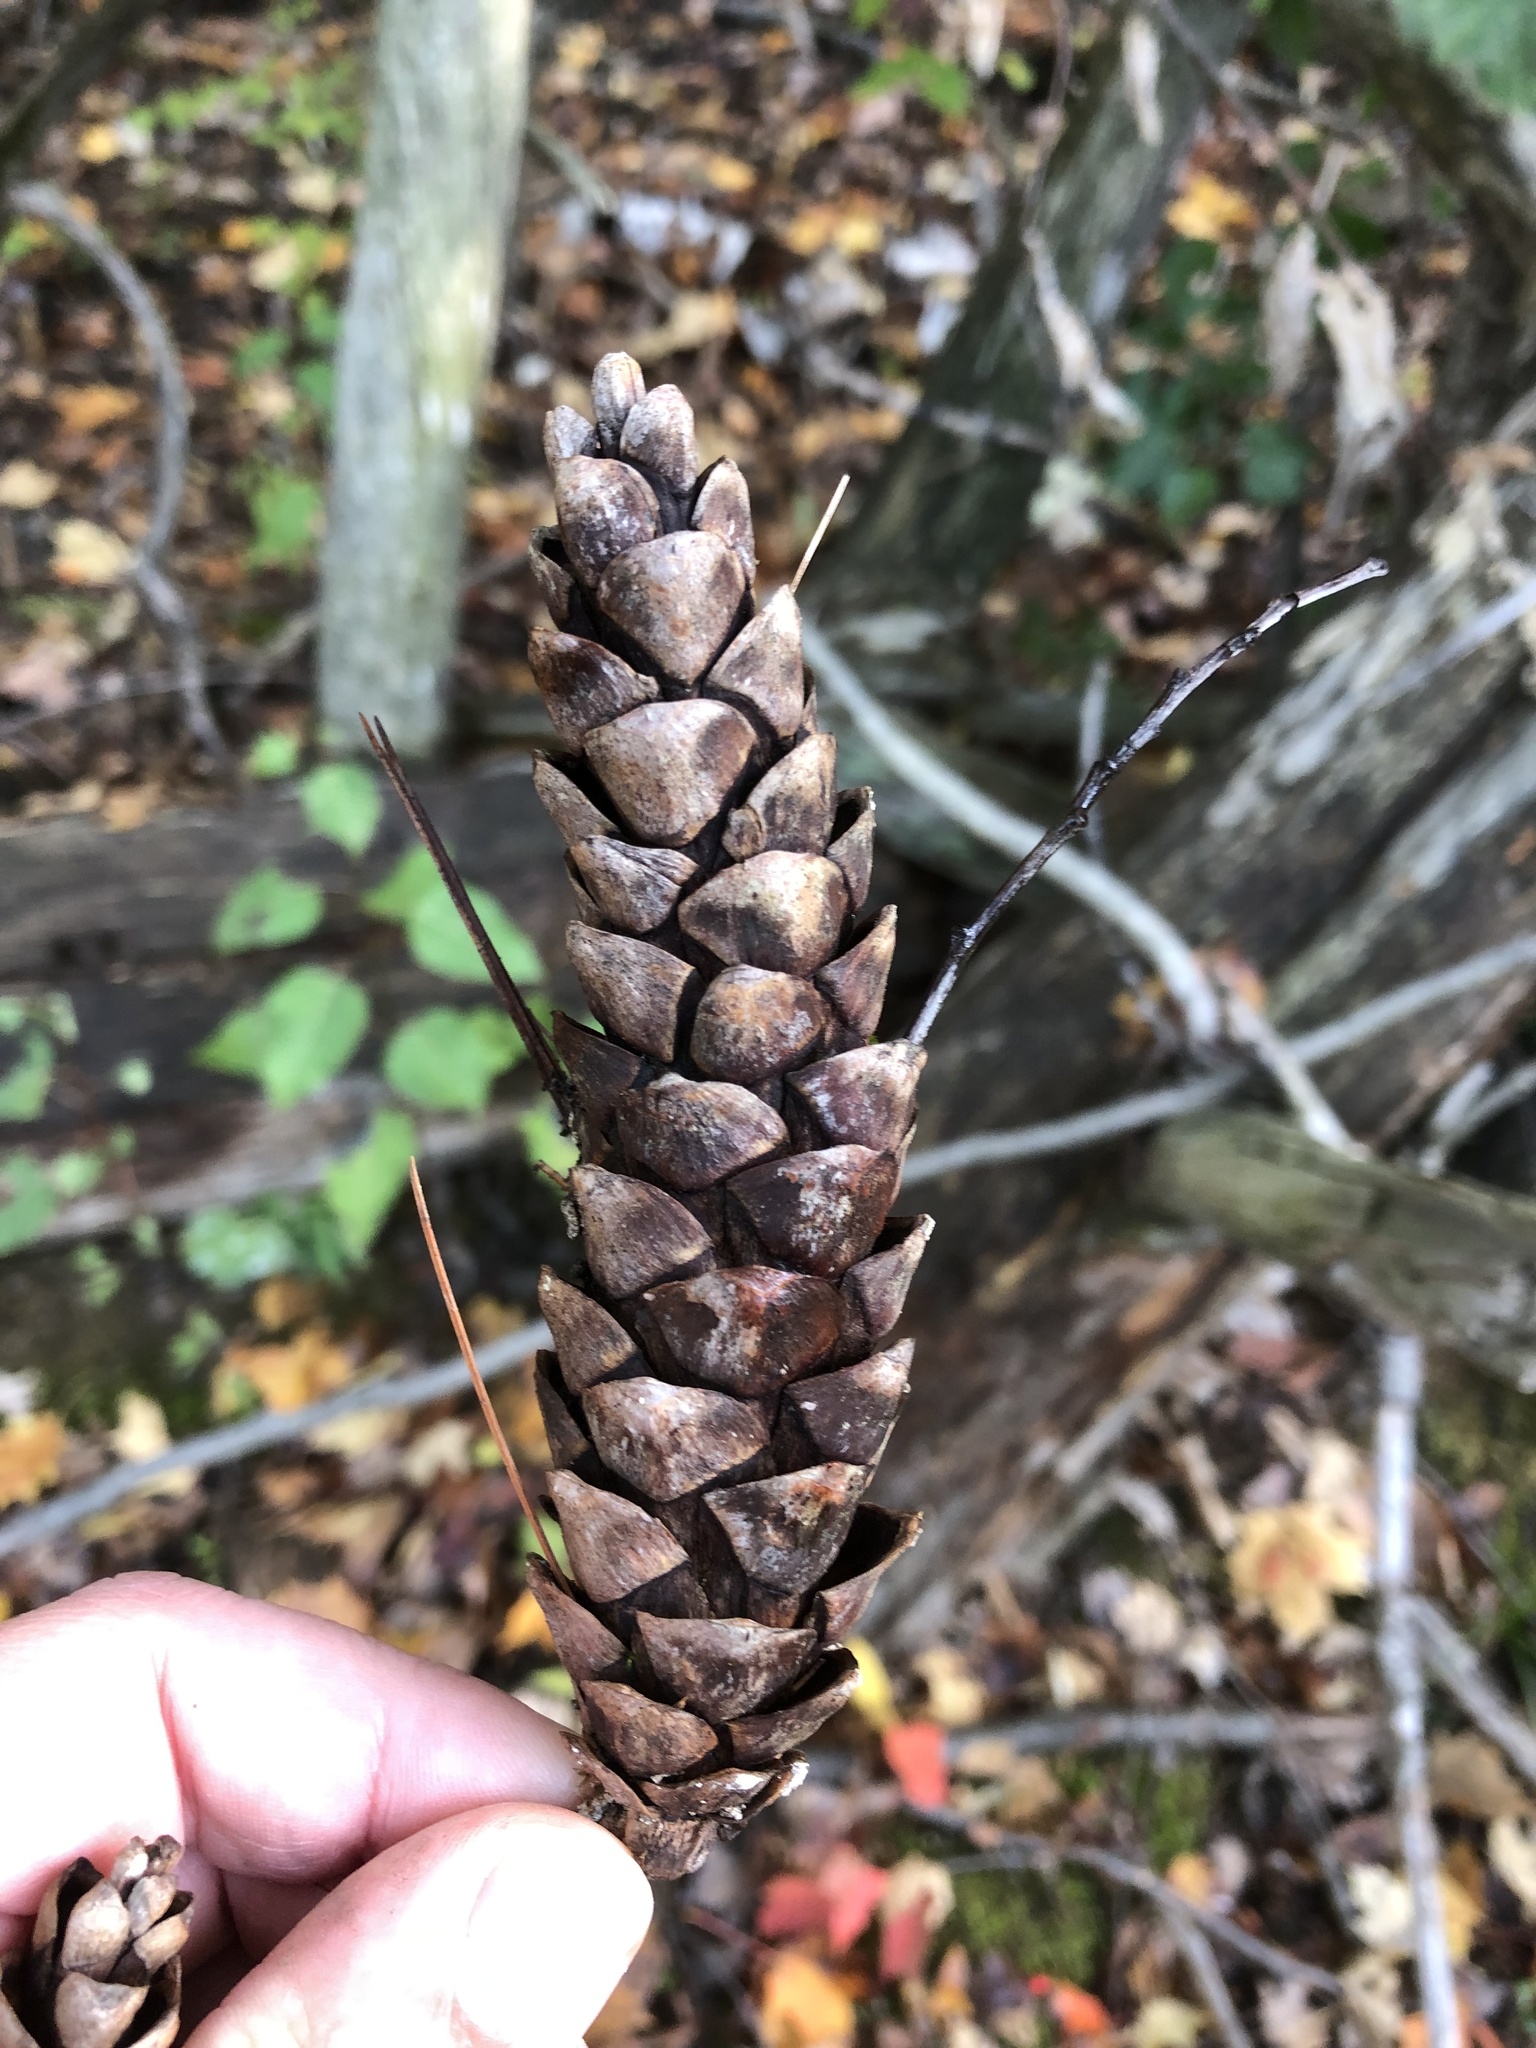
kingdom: Plantae
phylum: Tracheophyta
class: Pinopsida
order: Pinales
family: Pinaceae
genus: Pinus
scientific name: Pinus strobus
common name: Weymouth pine
